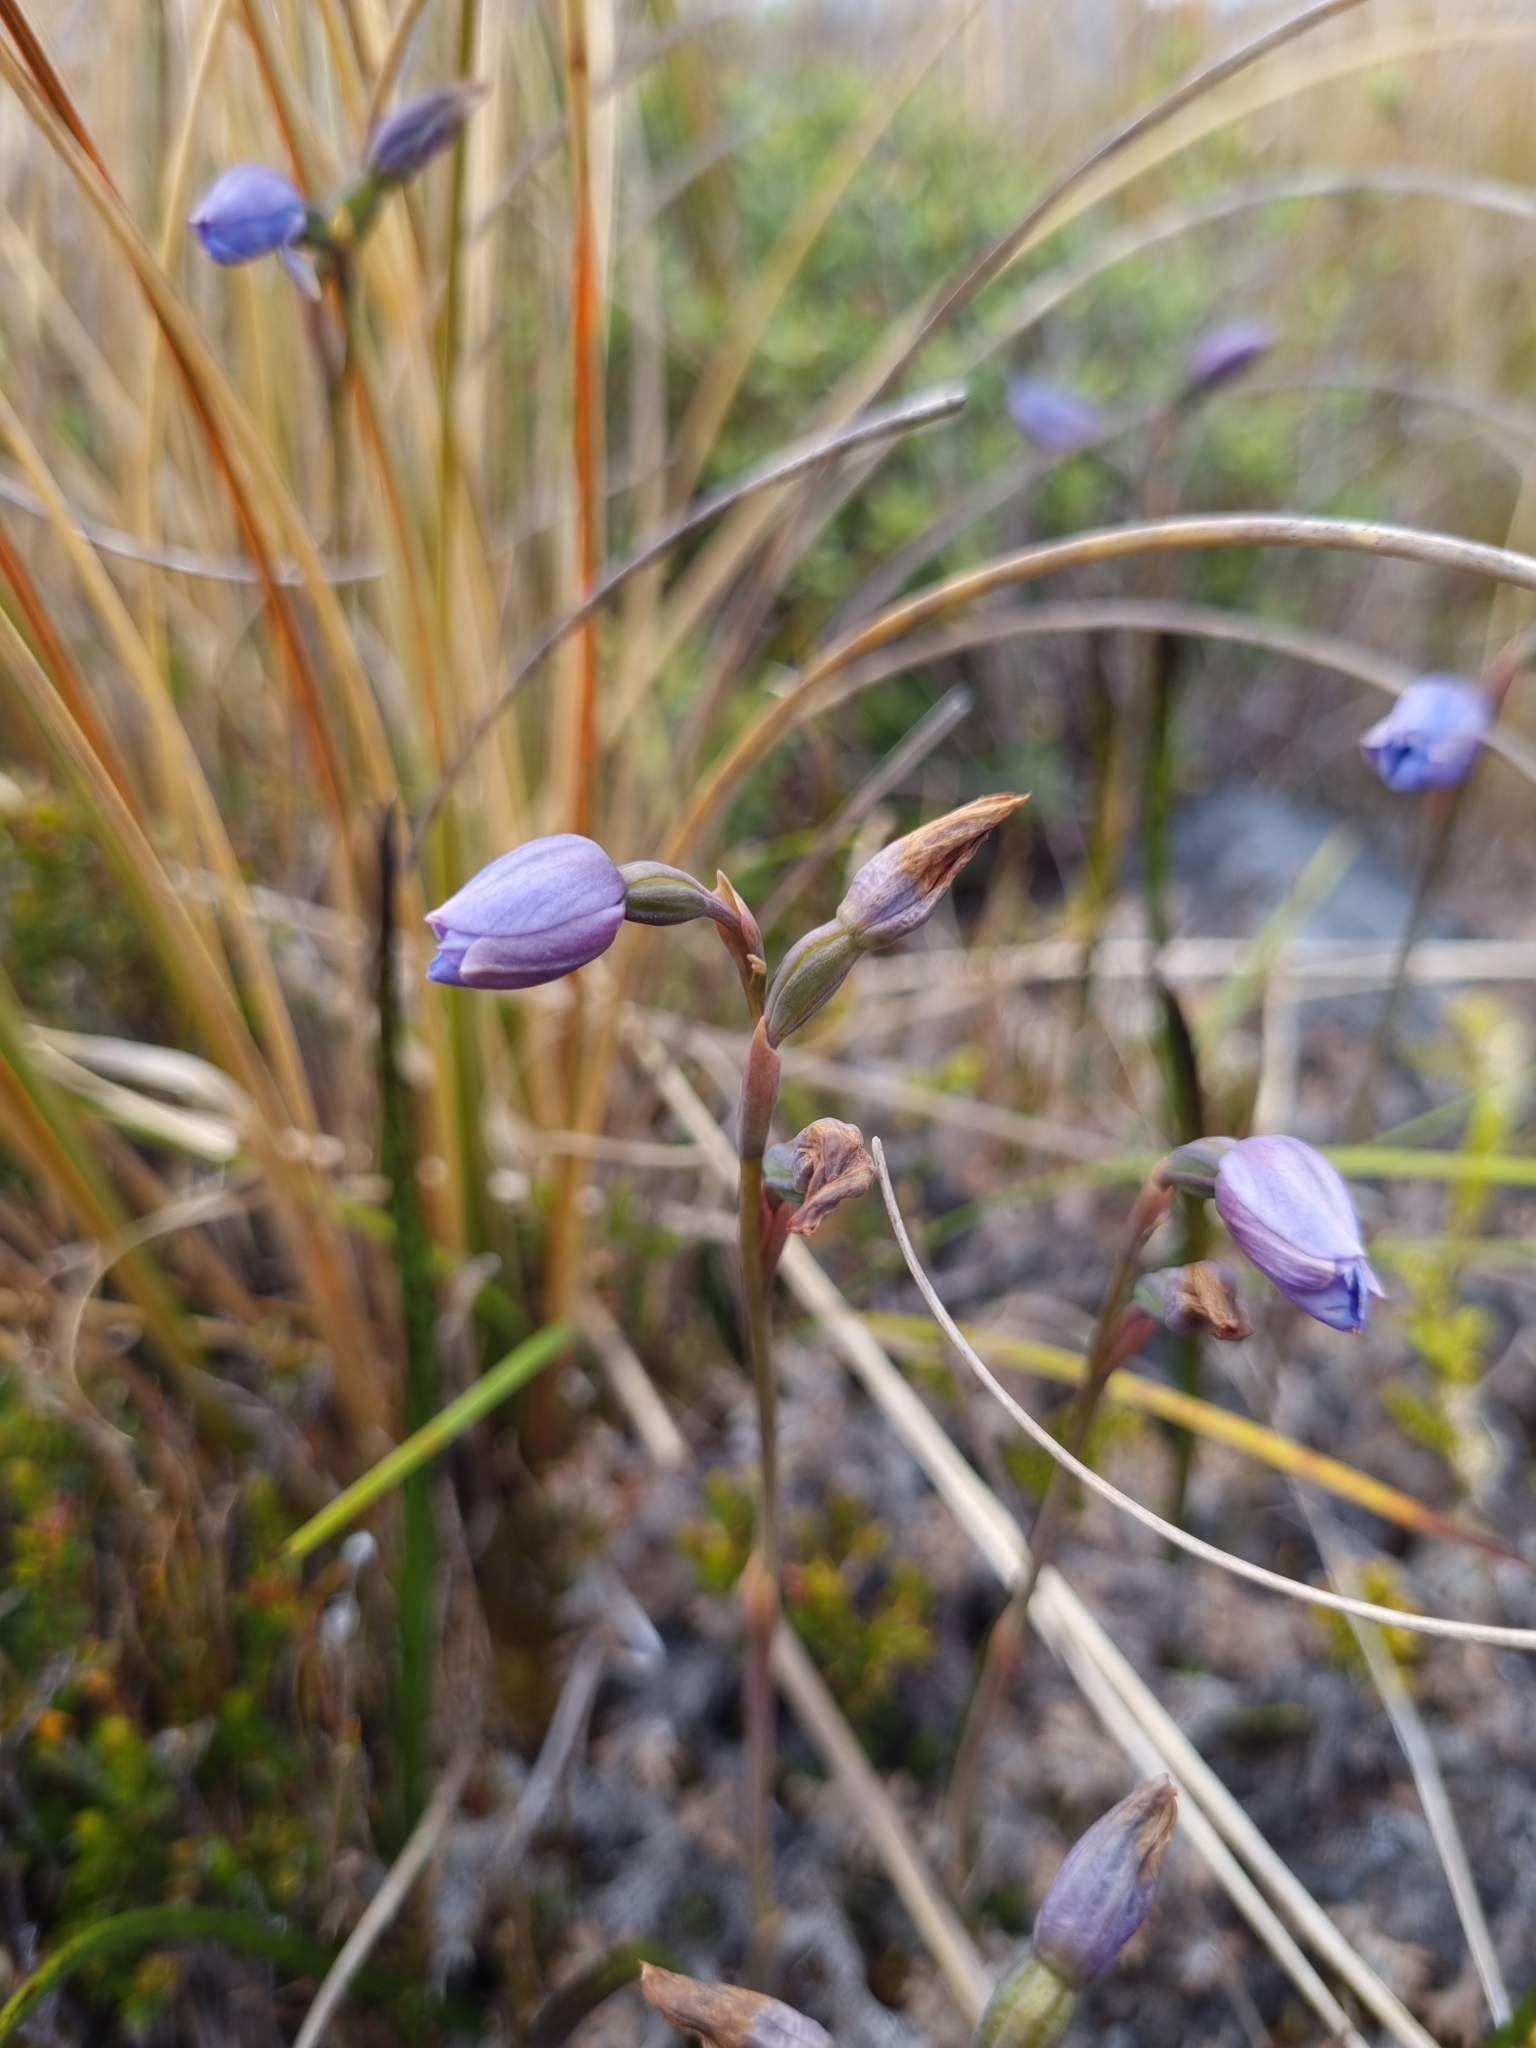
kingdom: Plantae
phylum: Tracheophyta
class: Liliopsida
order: Asparagales
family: Orchidaceae
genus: Thelymitra
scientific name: Thelymitra cyanea
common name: Blue sun-orchid
